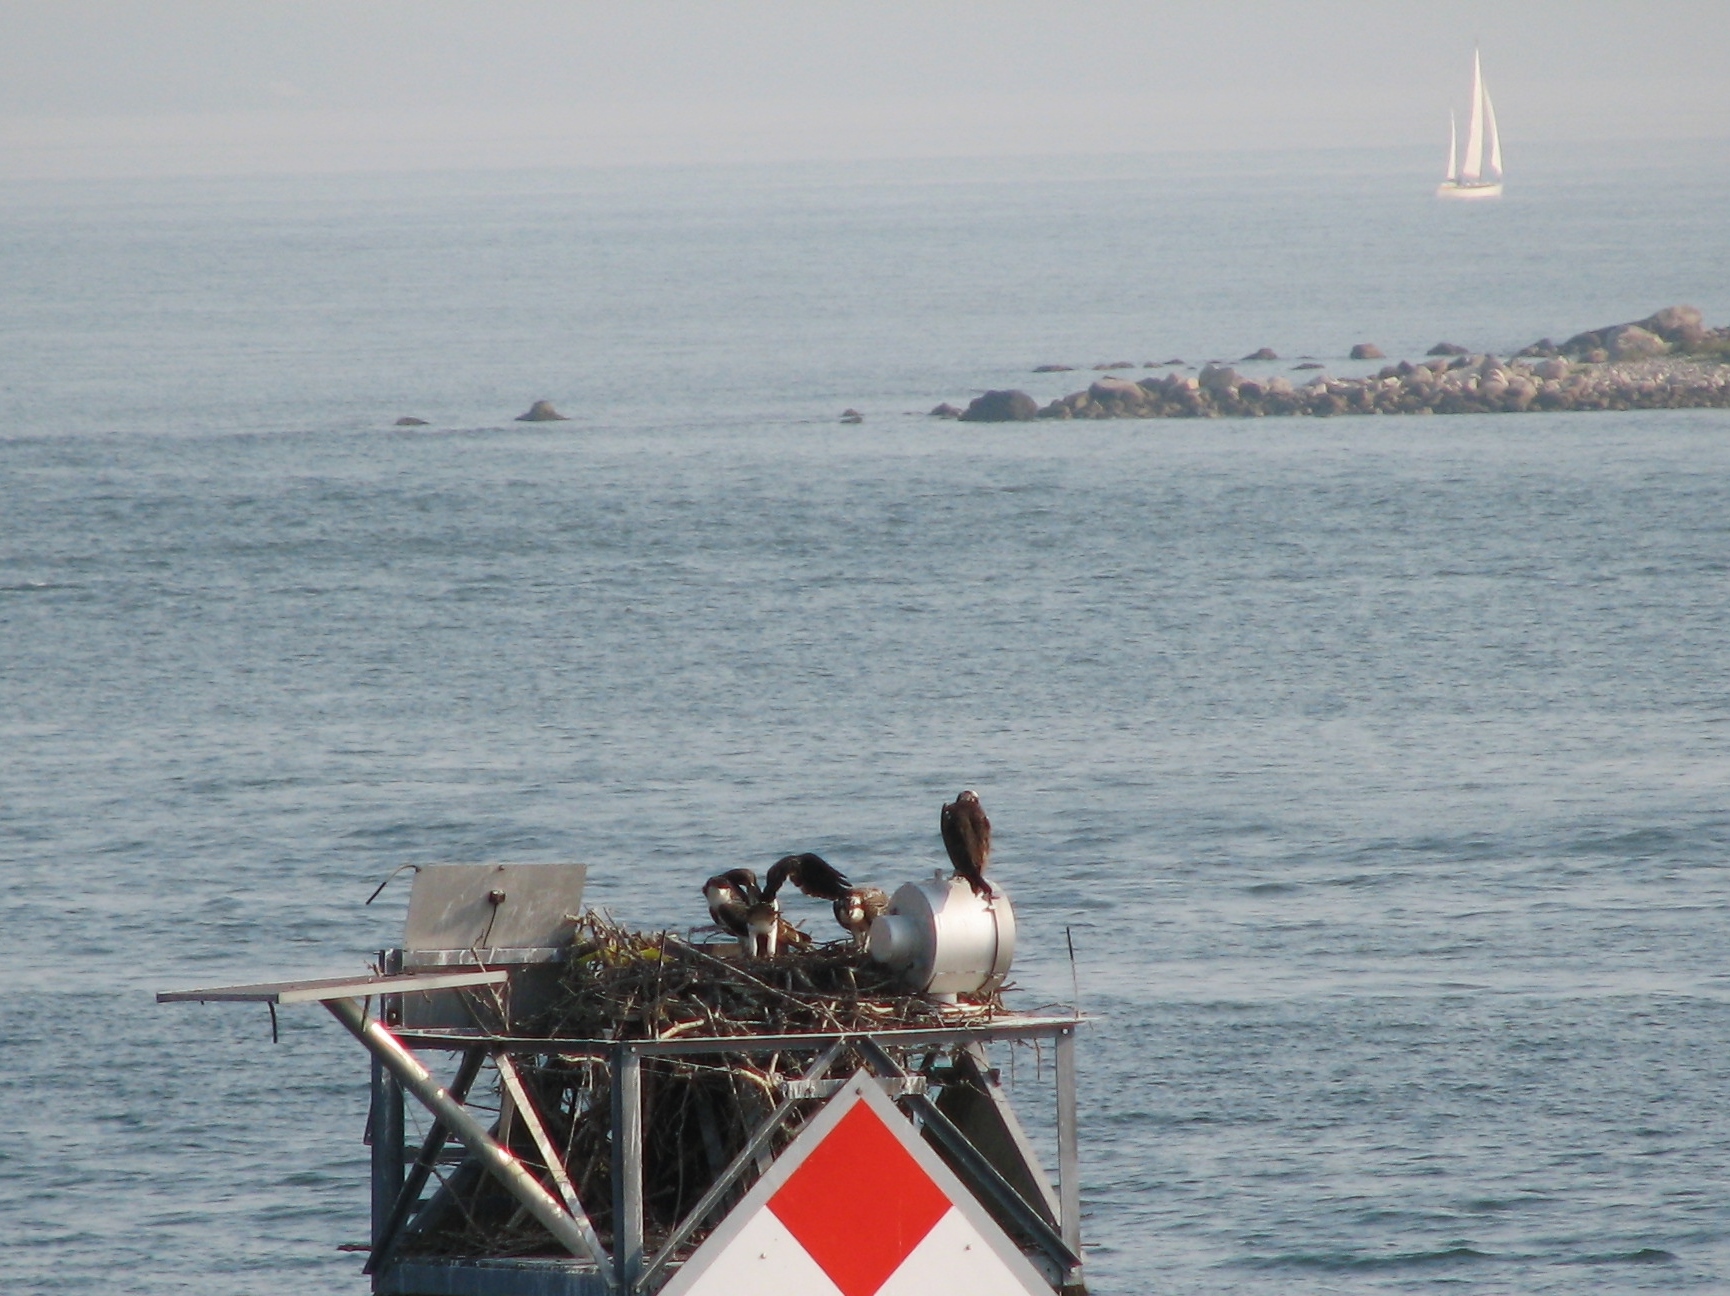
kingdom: Animalia
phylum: Chordata
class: Aves
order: Accipitriformes
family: Pandionidae
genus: Pandion
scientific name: Pandion haliaetus
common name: Osprey
